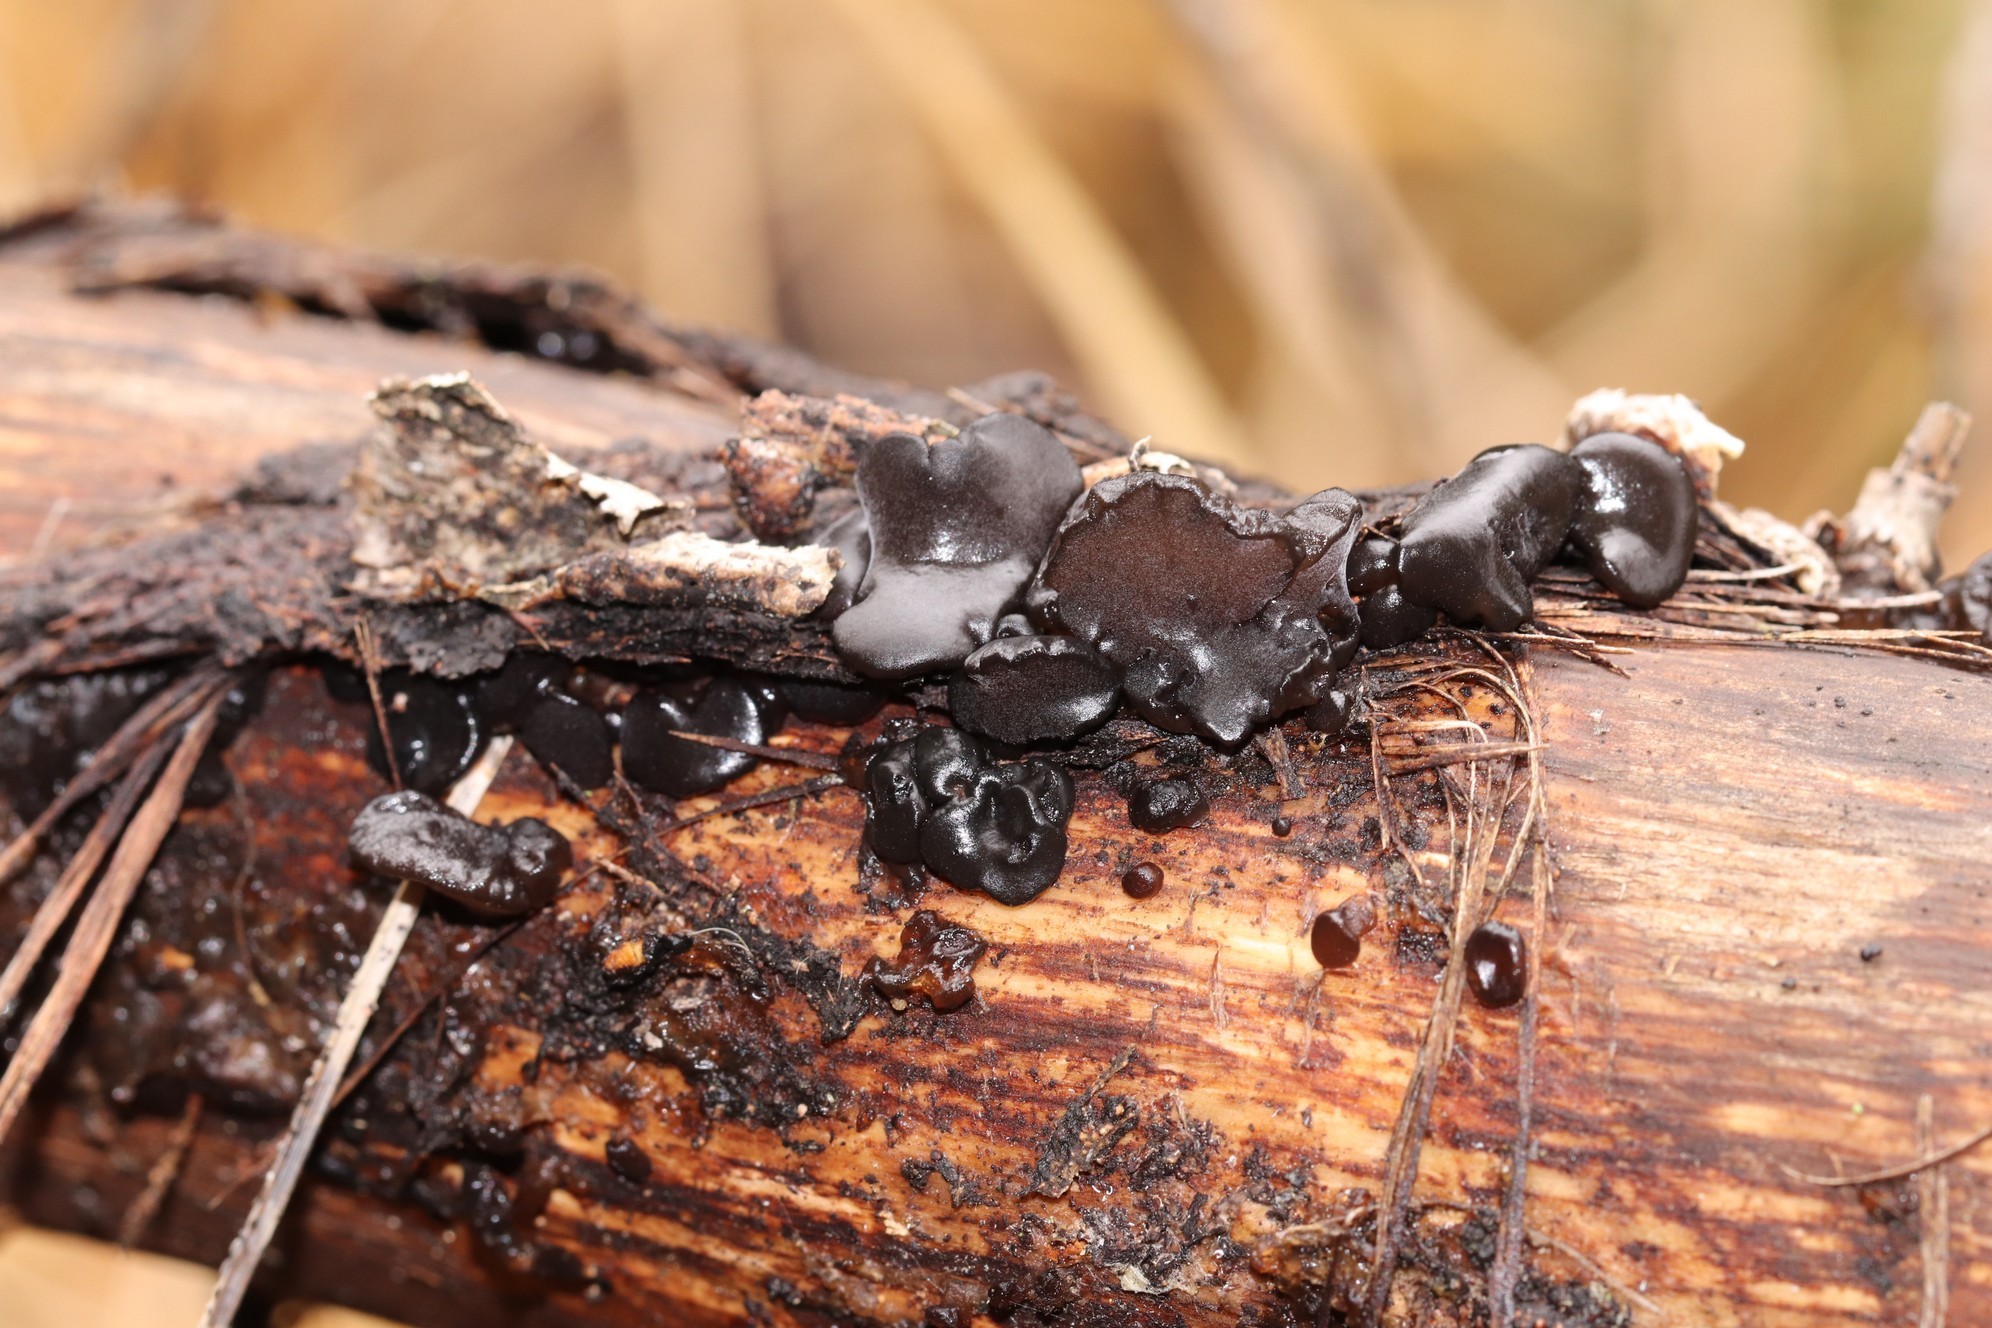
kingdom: Fungi
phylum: Basidiomycota
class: Agaricomycetes
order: Auriculariales
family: Auriculariaceae
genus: Exidia
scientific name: Exidia glandulosa
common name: Witches' butter
